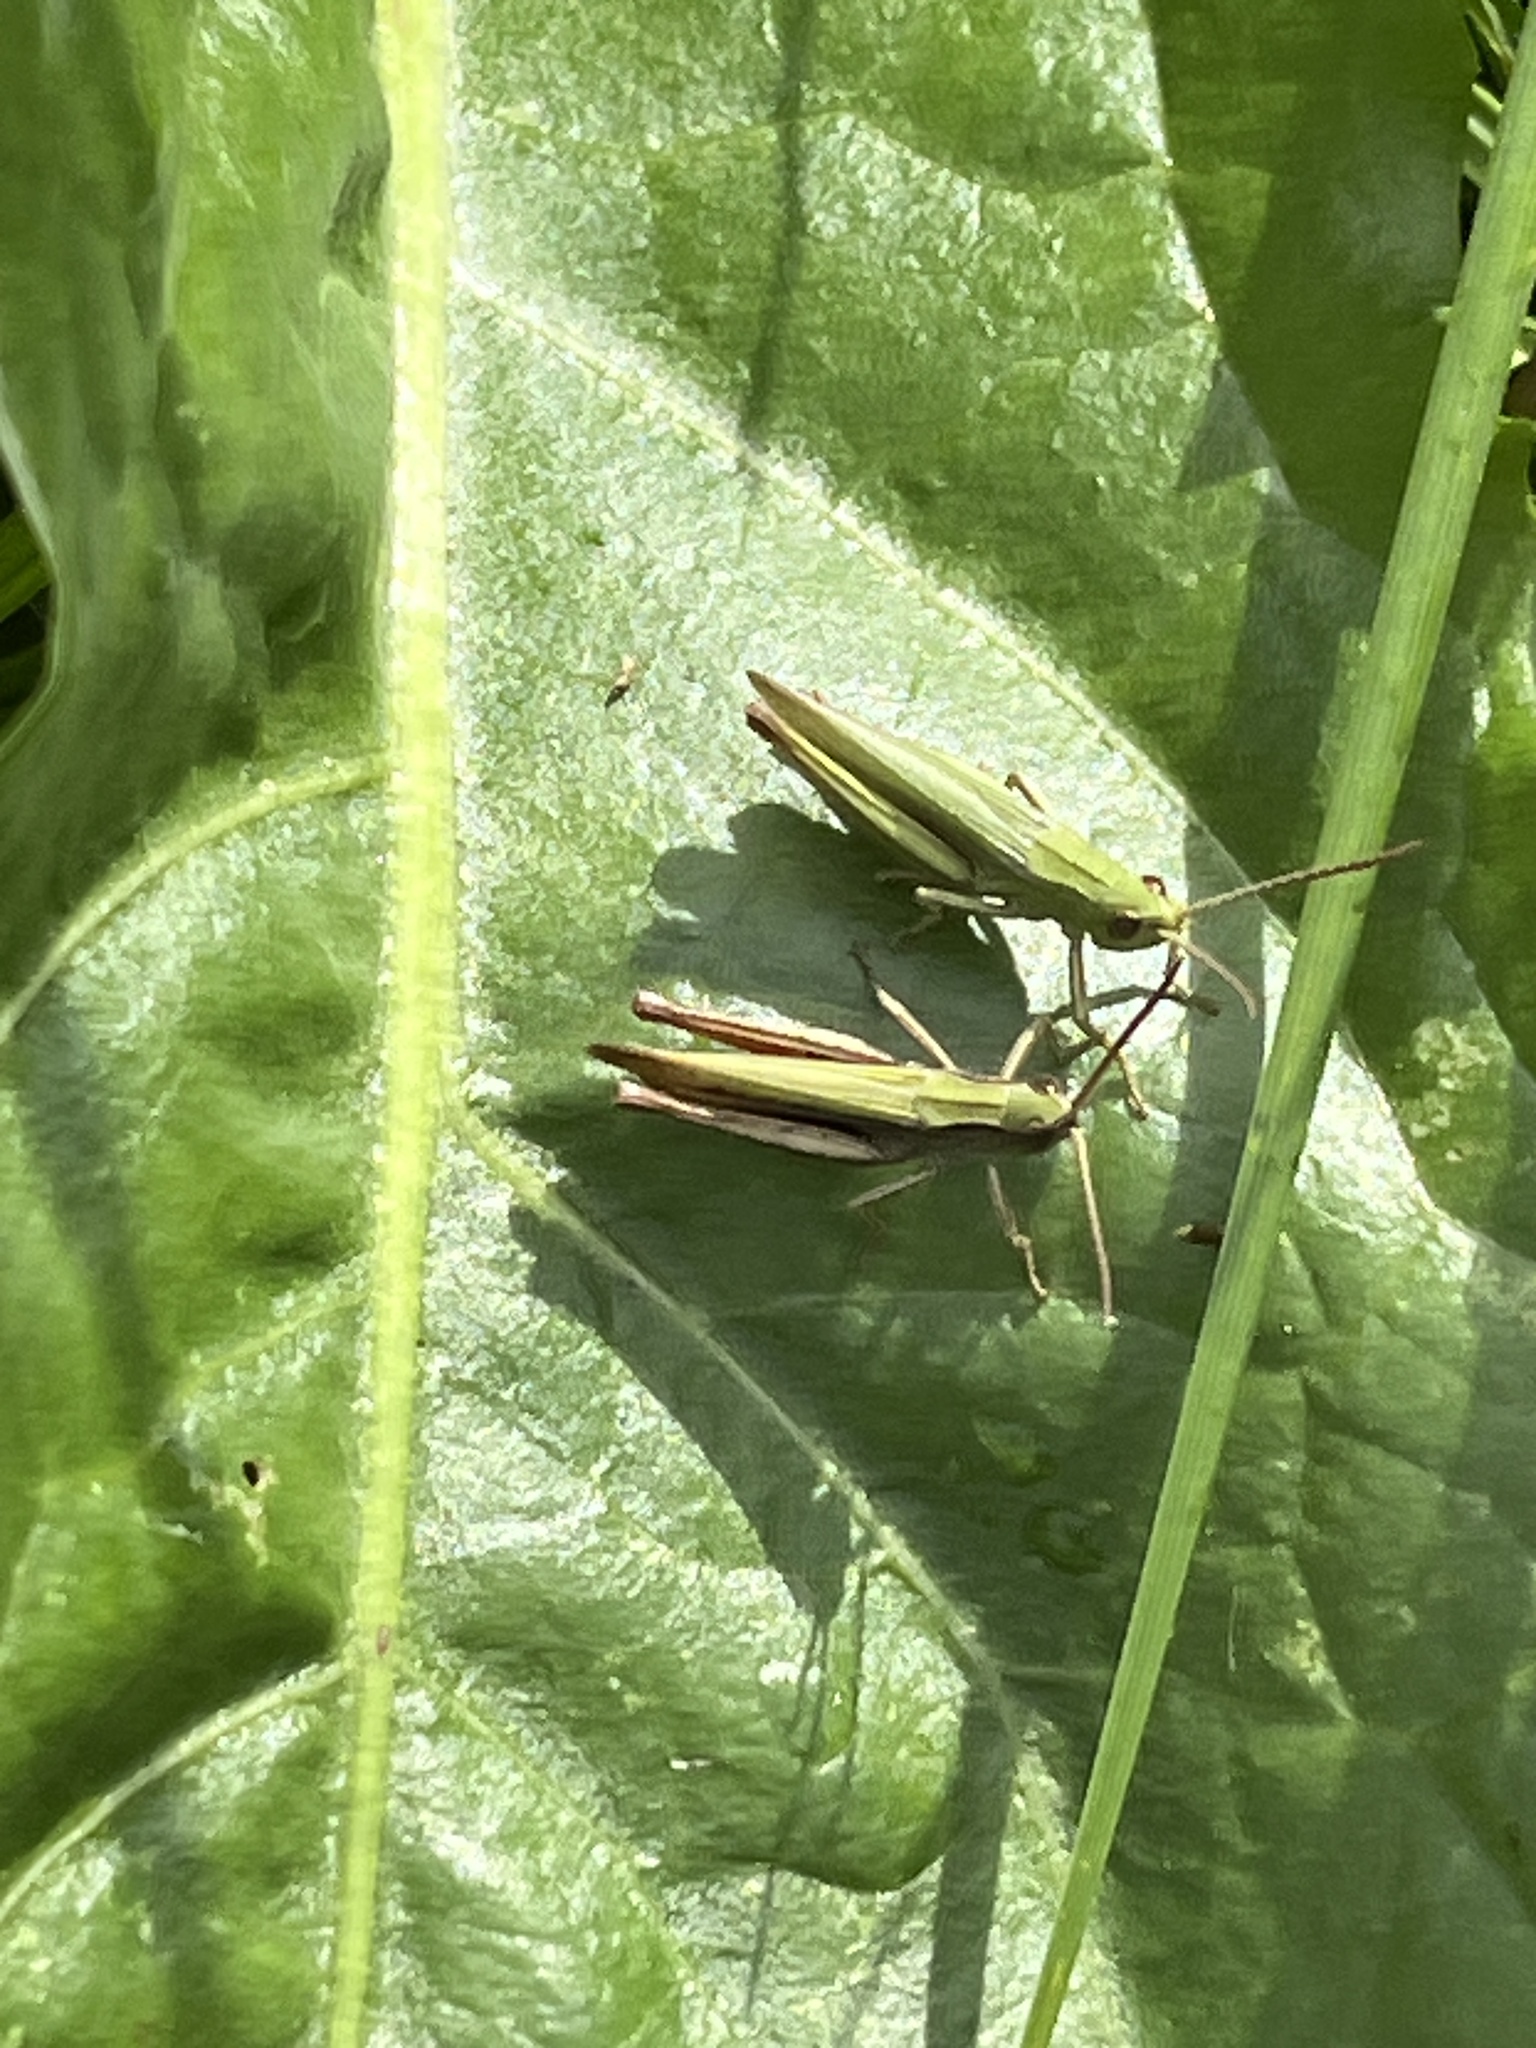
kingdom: Animalia
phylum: Arthropoda
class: Insecta
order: Orthoptera
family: Acrididae
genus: Chorthippus
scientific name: Chorthippus dorsatus
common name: Steppe grasshopper
